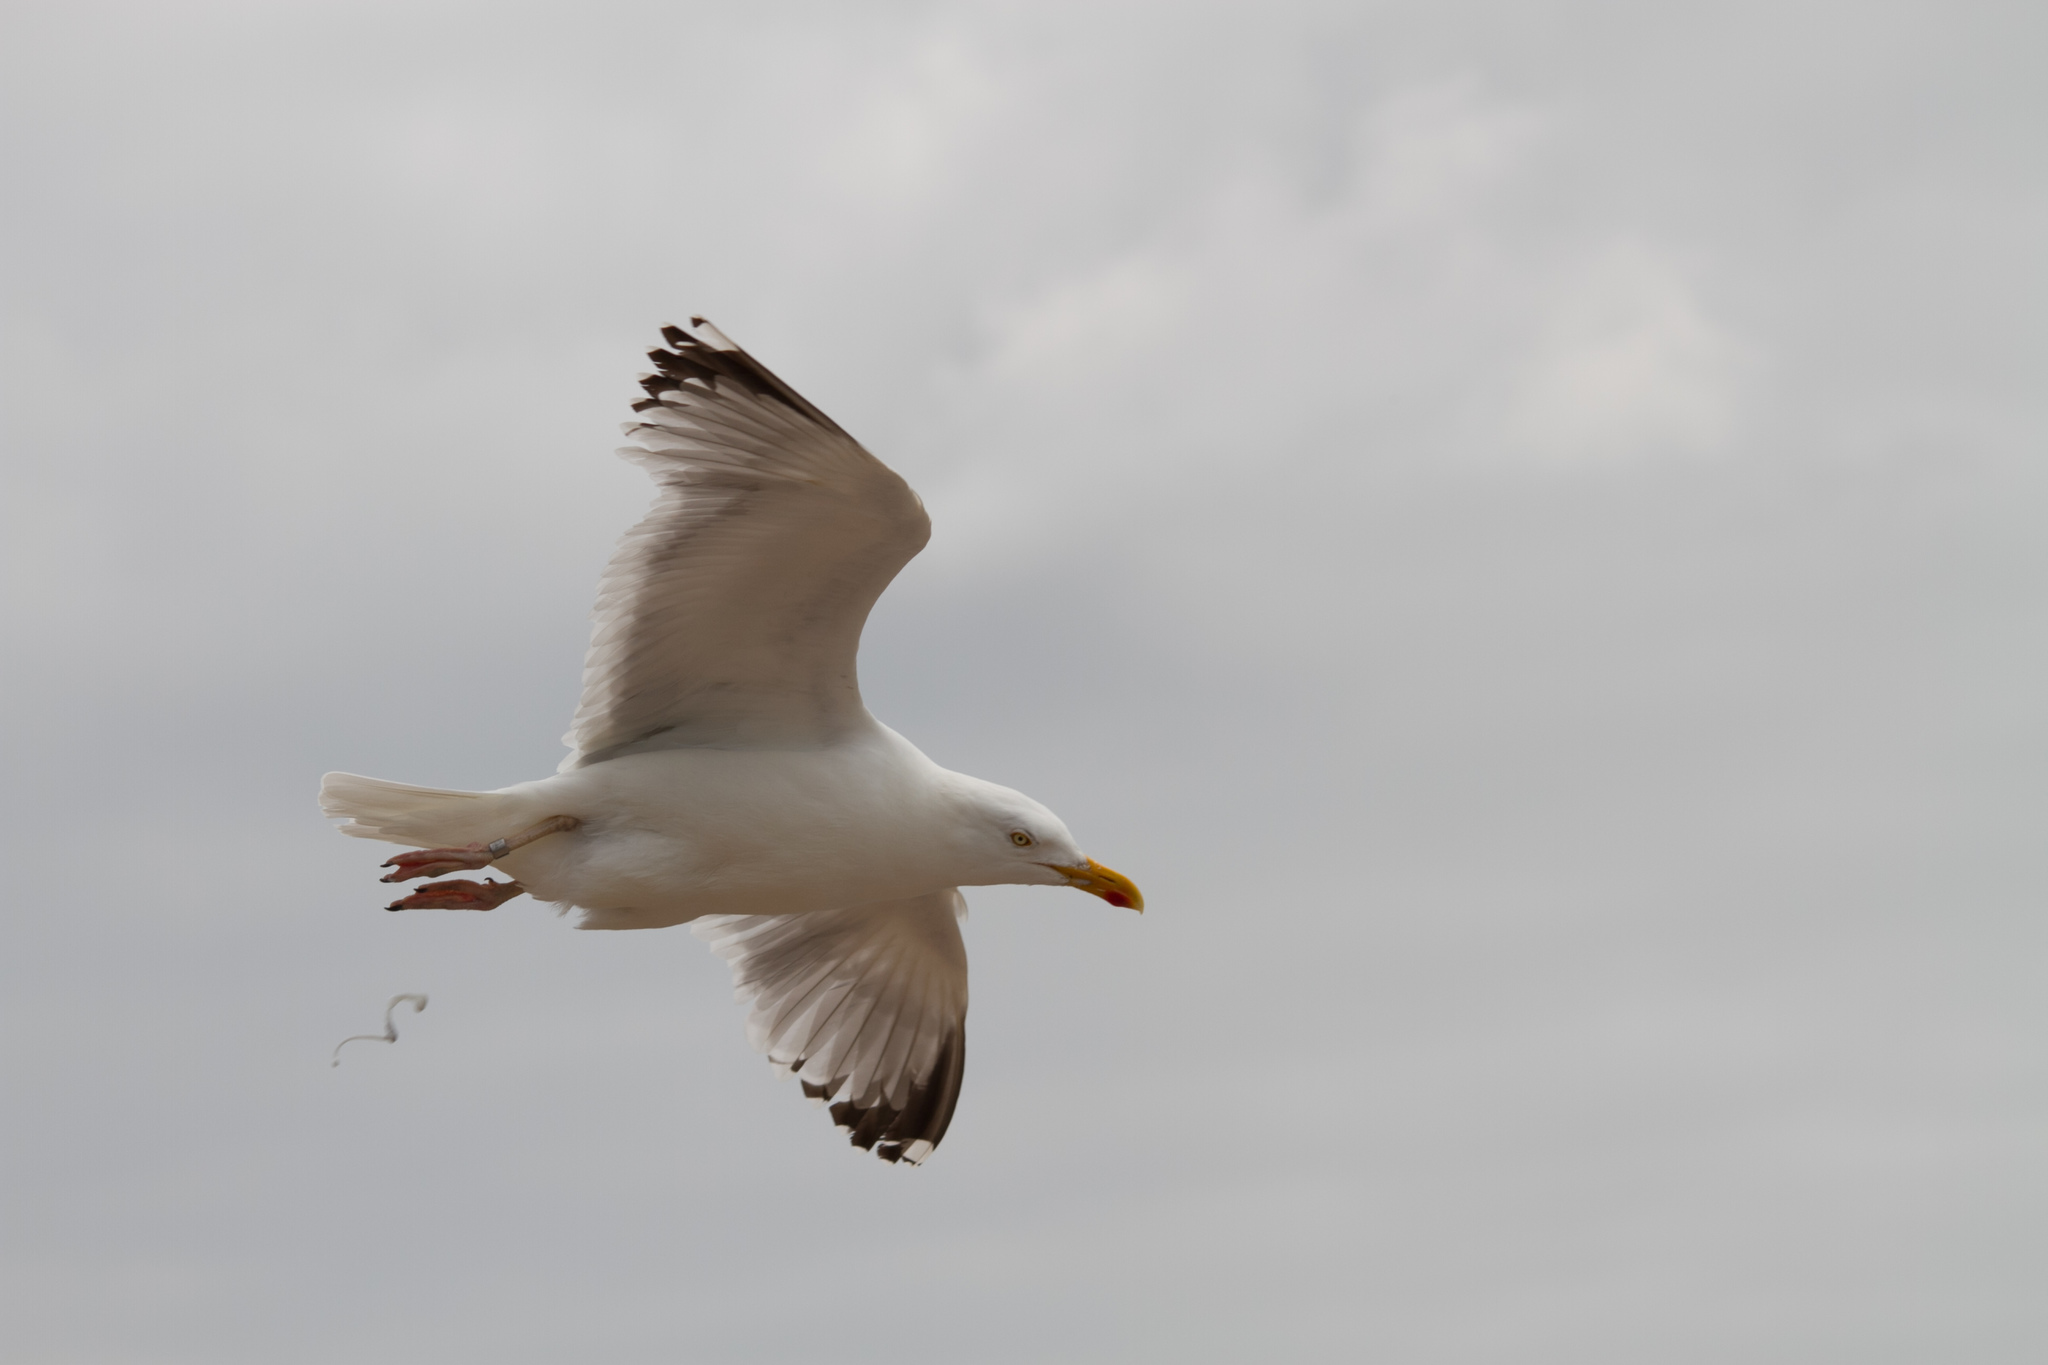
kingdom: Animalia
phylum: Chordata
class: Aves
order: Charadriiformes
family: Laridae
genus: Larus
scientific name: Larus argentatus
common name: Herring gull
